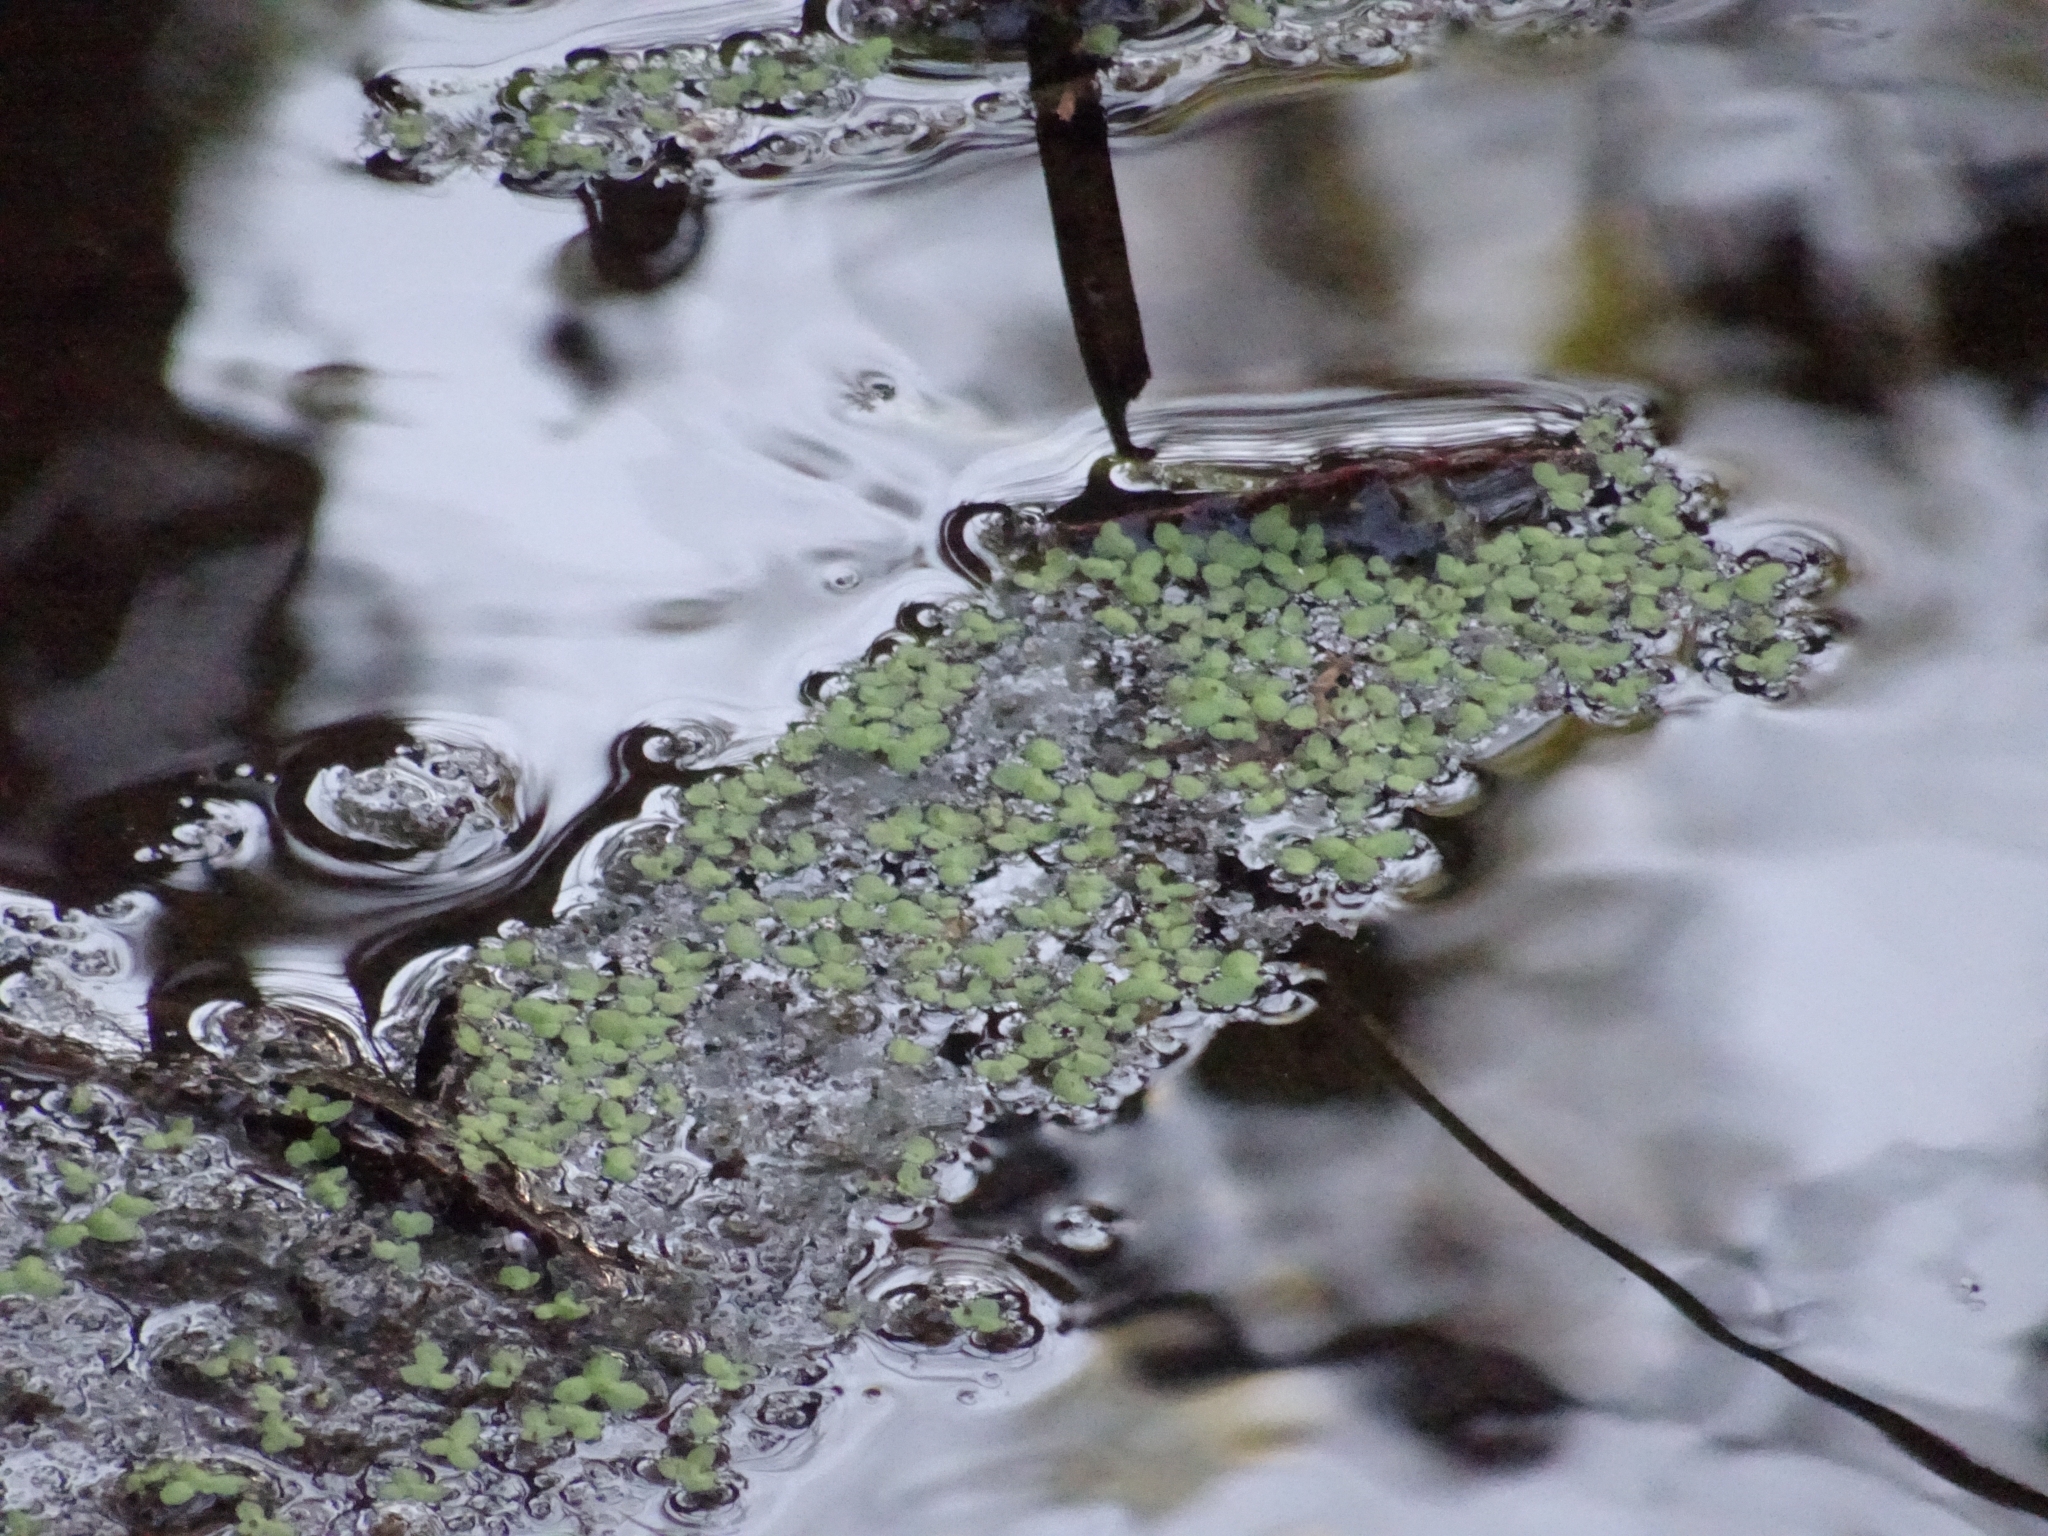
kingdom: Plantae
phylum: Tracheophyta
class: Liliopsida
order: Alismatales
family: Araceae
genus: Lemna
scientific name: Lemna minor
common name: Common duckweed
